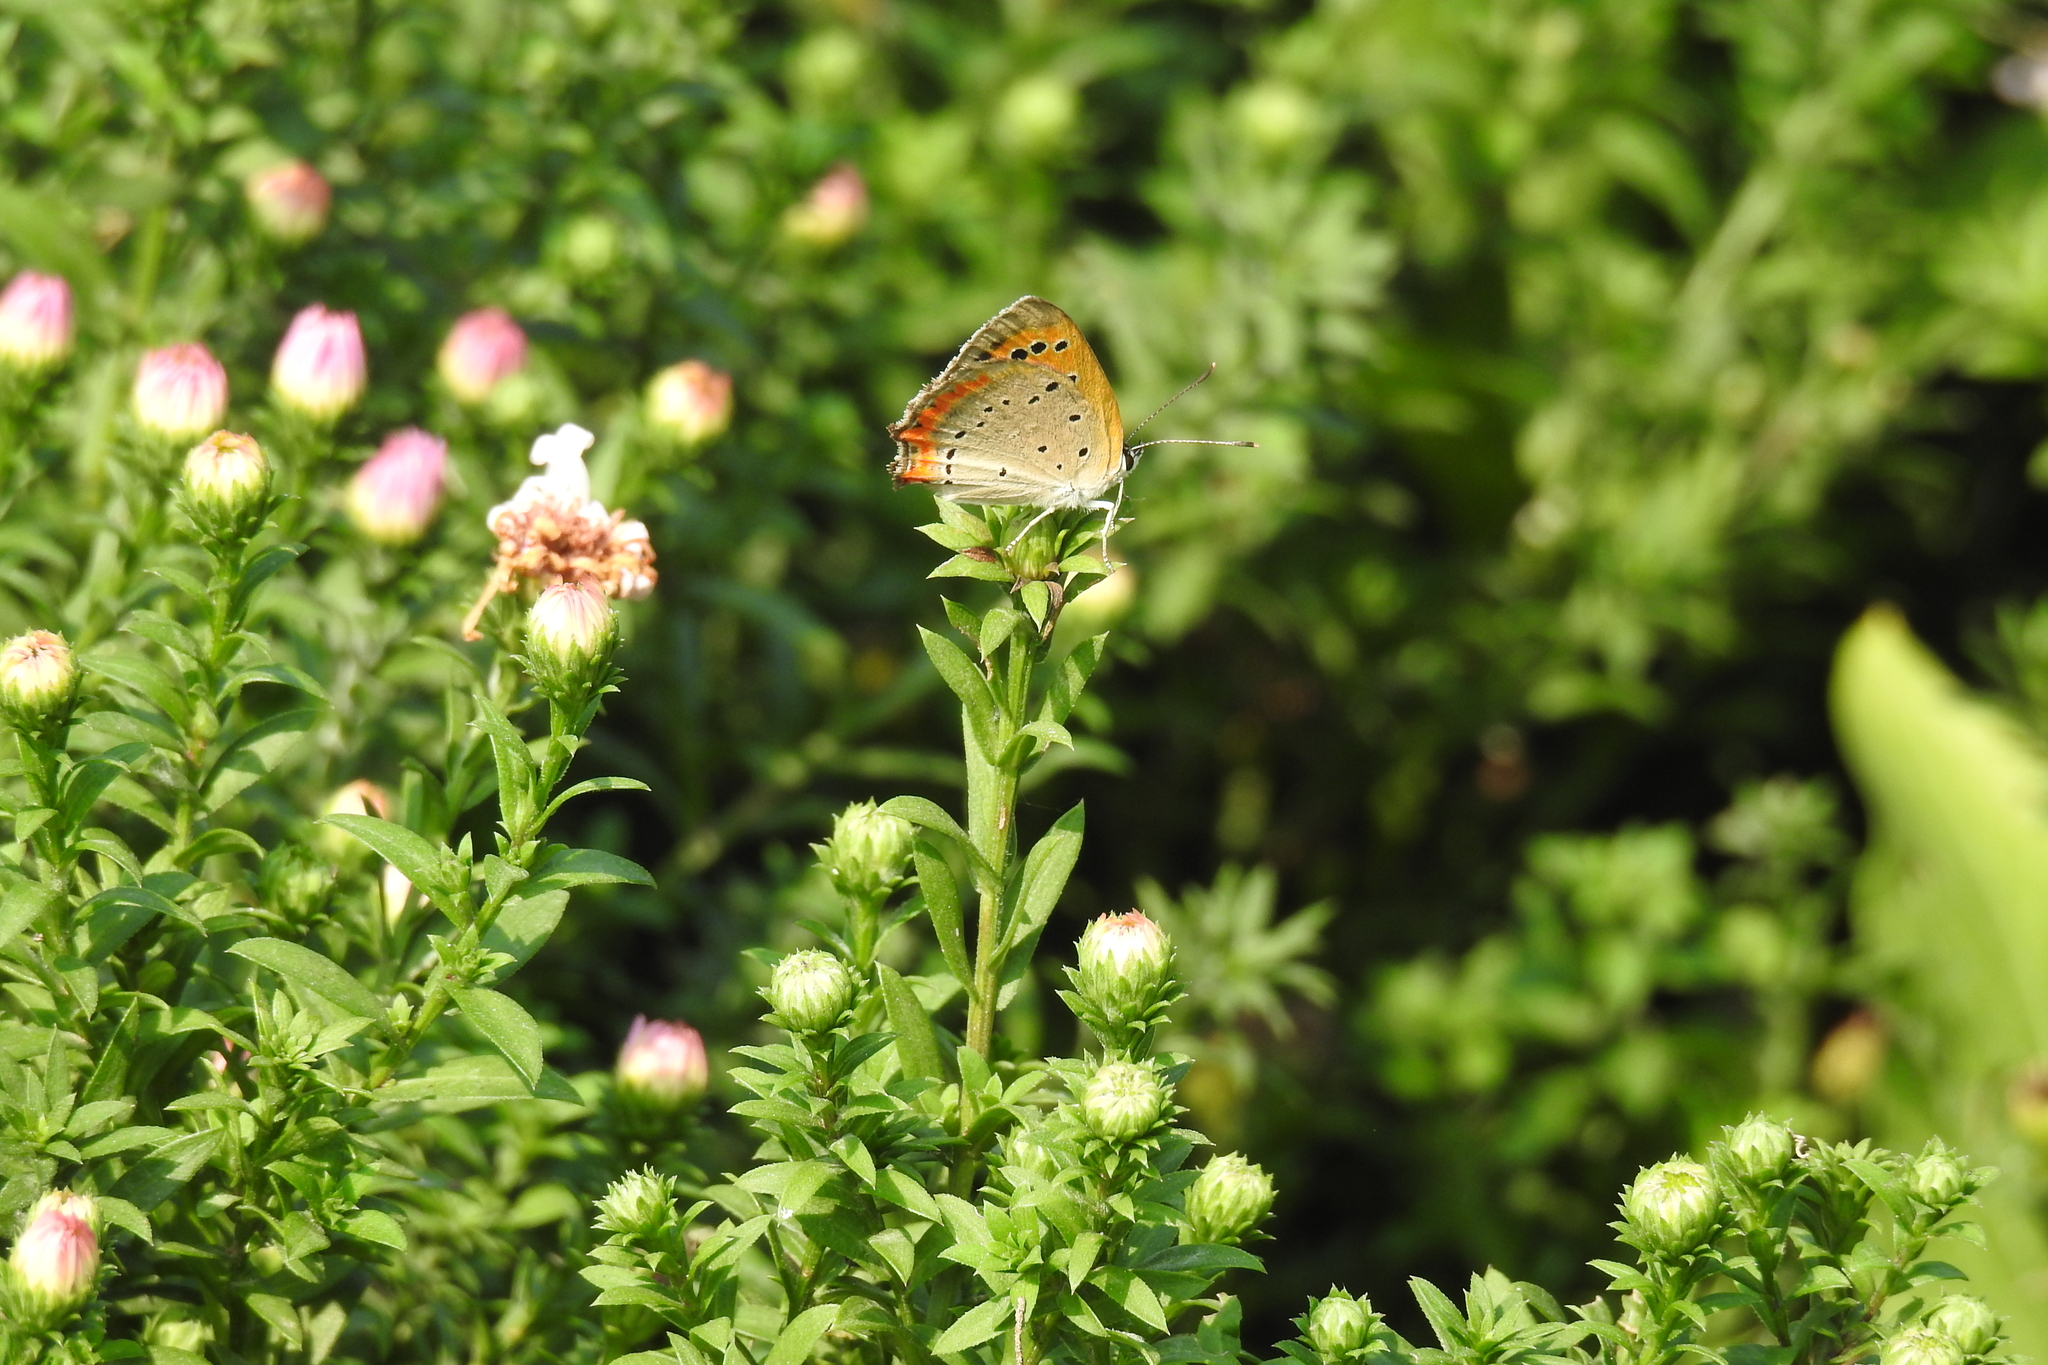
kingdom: Animalia
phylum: Arthropoda
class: Insecta
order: Lepidoptera
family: Lycaenidae
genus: Lycaena
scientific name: Lycaena phlaeas
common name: Small copper
